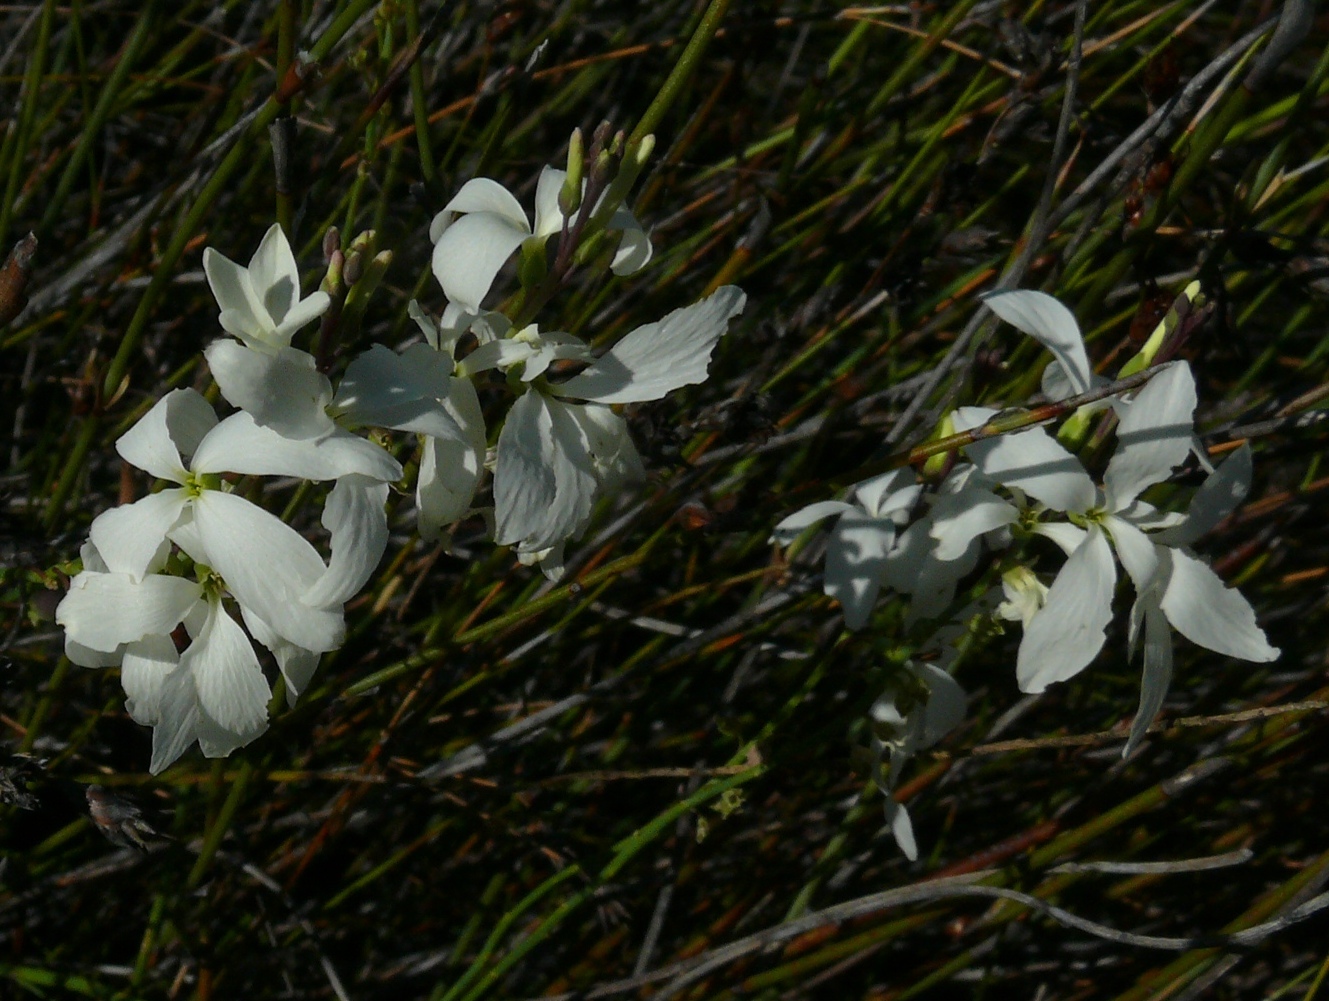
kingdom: Plantae
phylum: Tracheophyta
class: Magnoliopsida
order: Brassicales
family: Brassicaceae
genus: Heliophila
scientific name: Heliophila juncea
